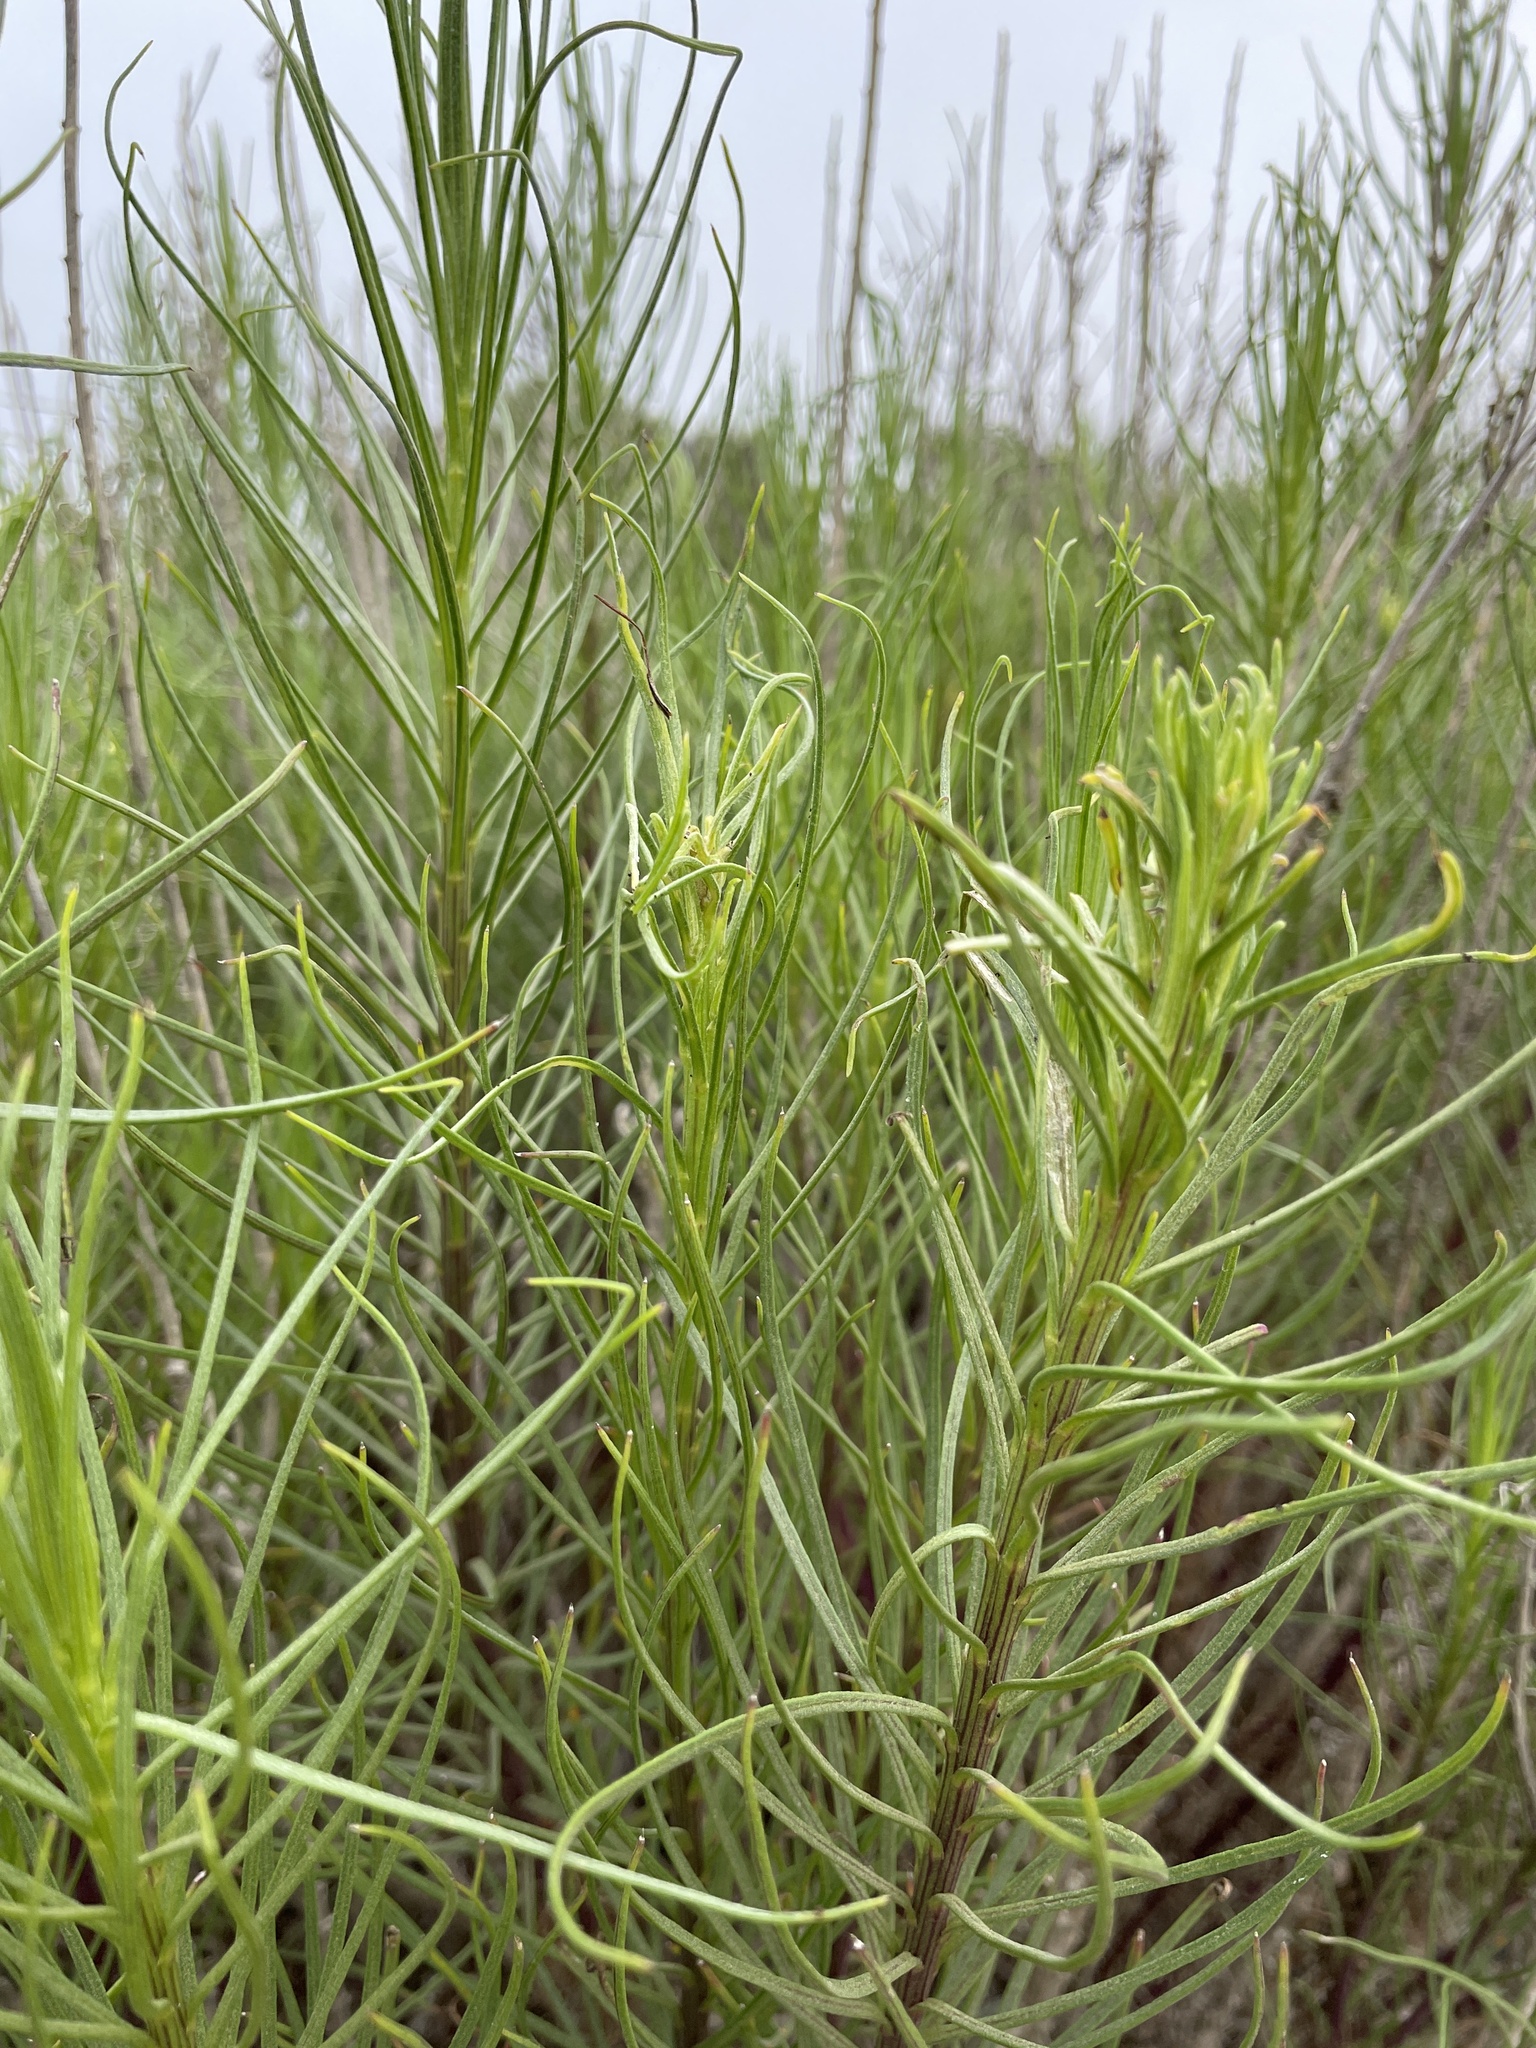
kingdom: Plantae
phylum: Tracheophyta
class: Magnoliopsida
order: Asterales
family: Asteraceae
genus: Senecio
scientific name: Senecio blochmaniae
